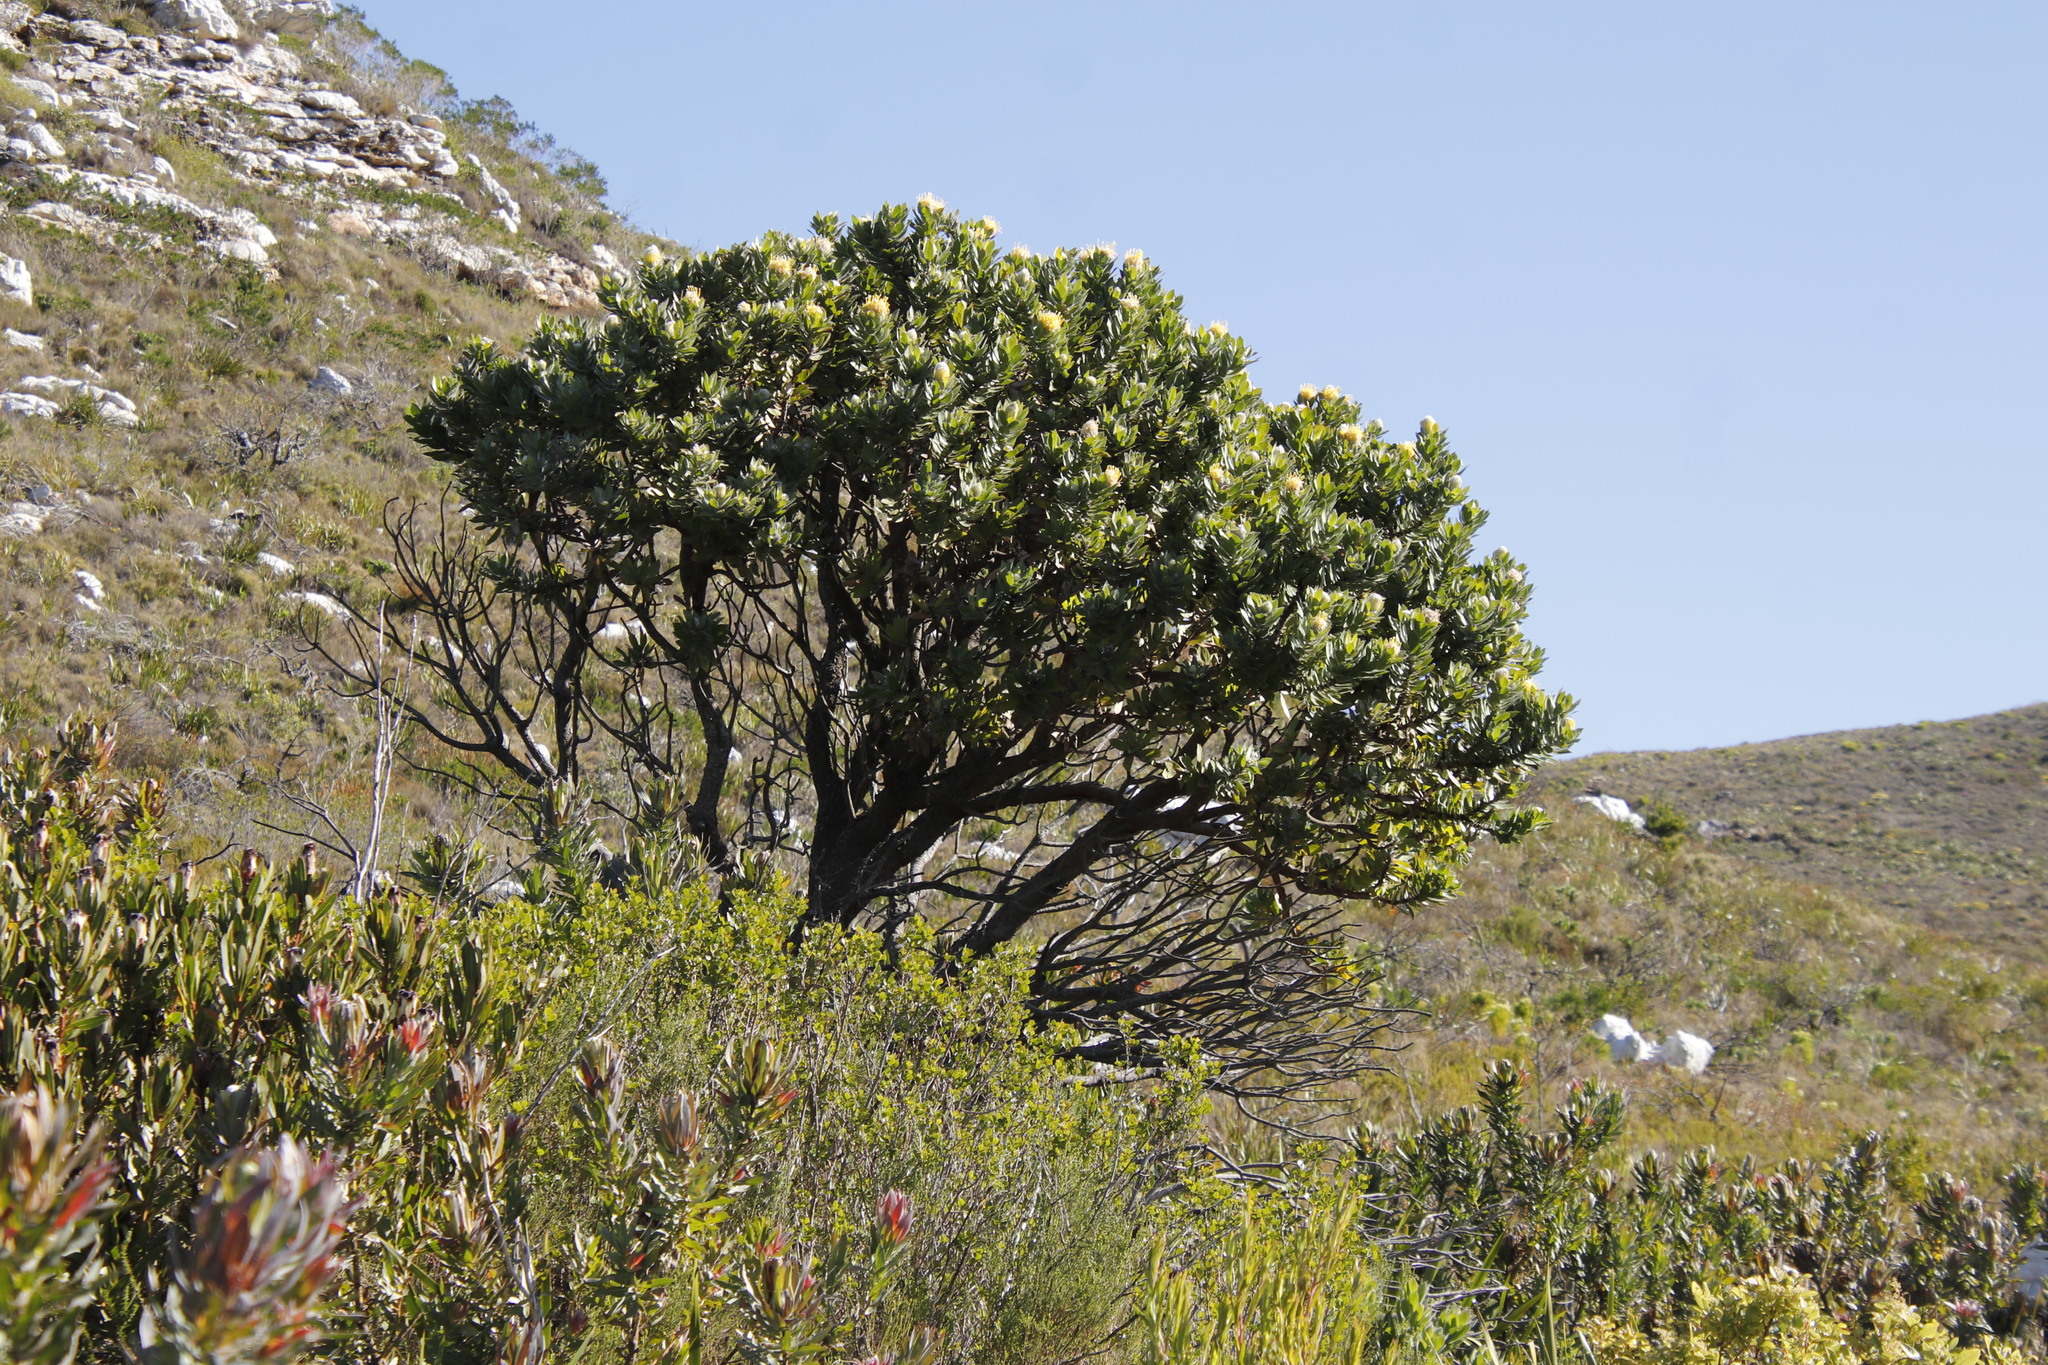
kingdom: Plantae
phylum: Tracheophyta
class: Magnoliopsida
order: Proteales
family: Proteaceae
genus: Leucospermum
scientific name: Leucospermum conocarpodendron
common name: Tree pincushion
